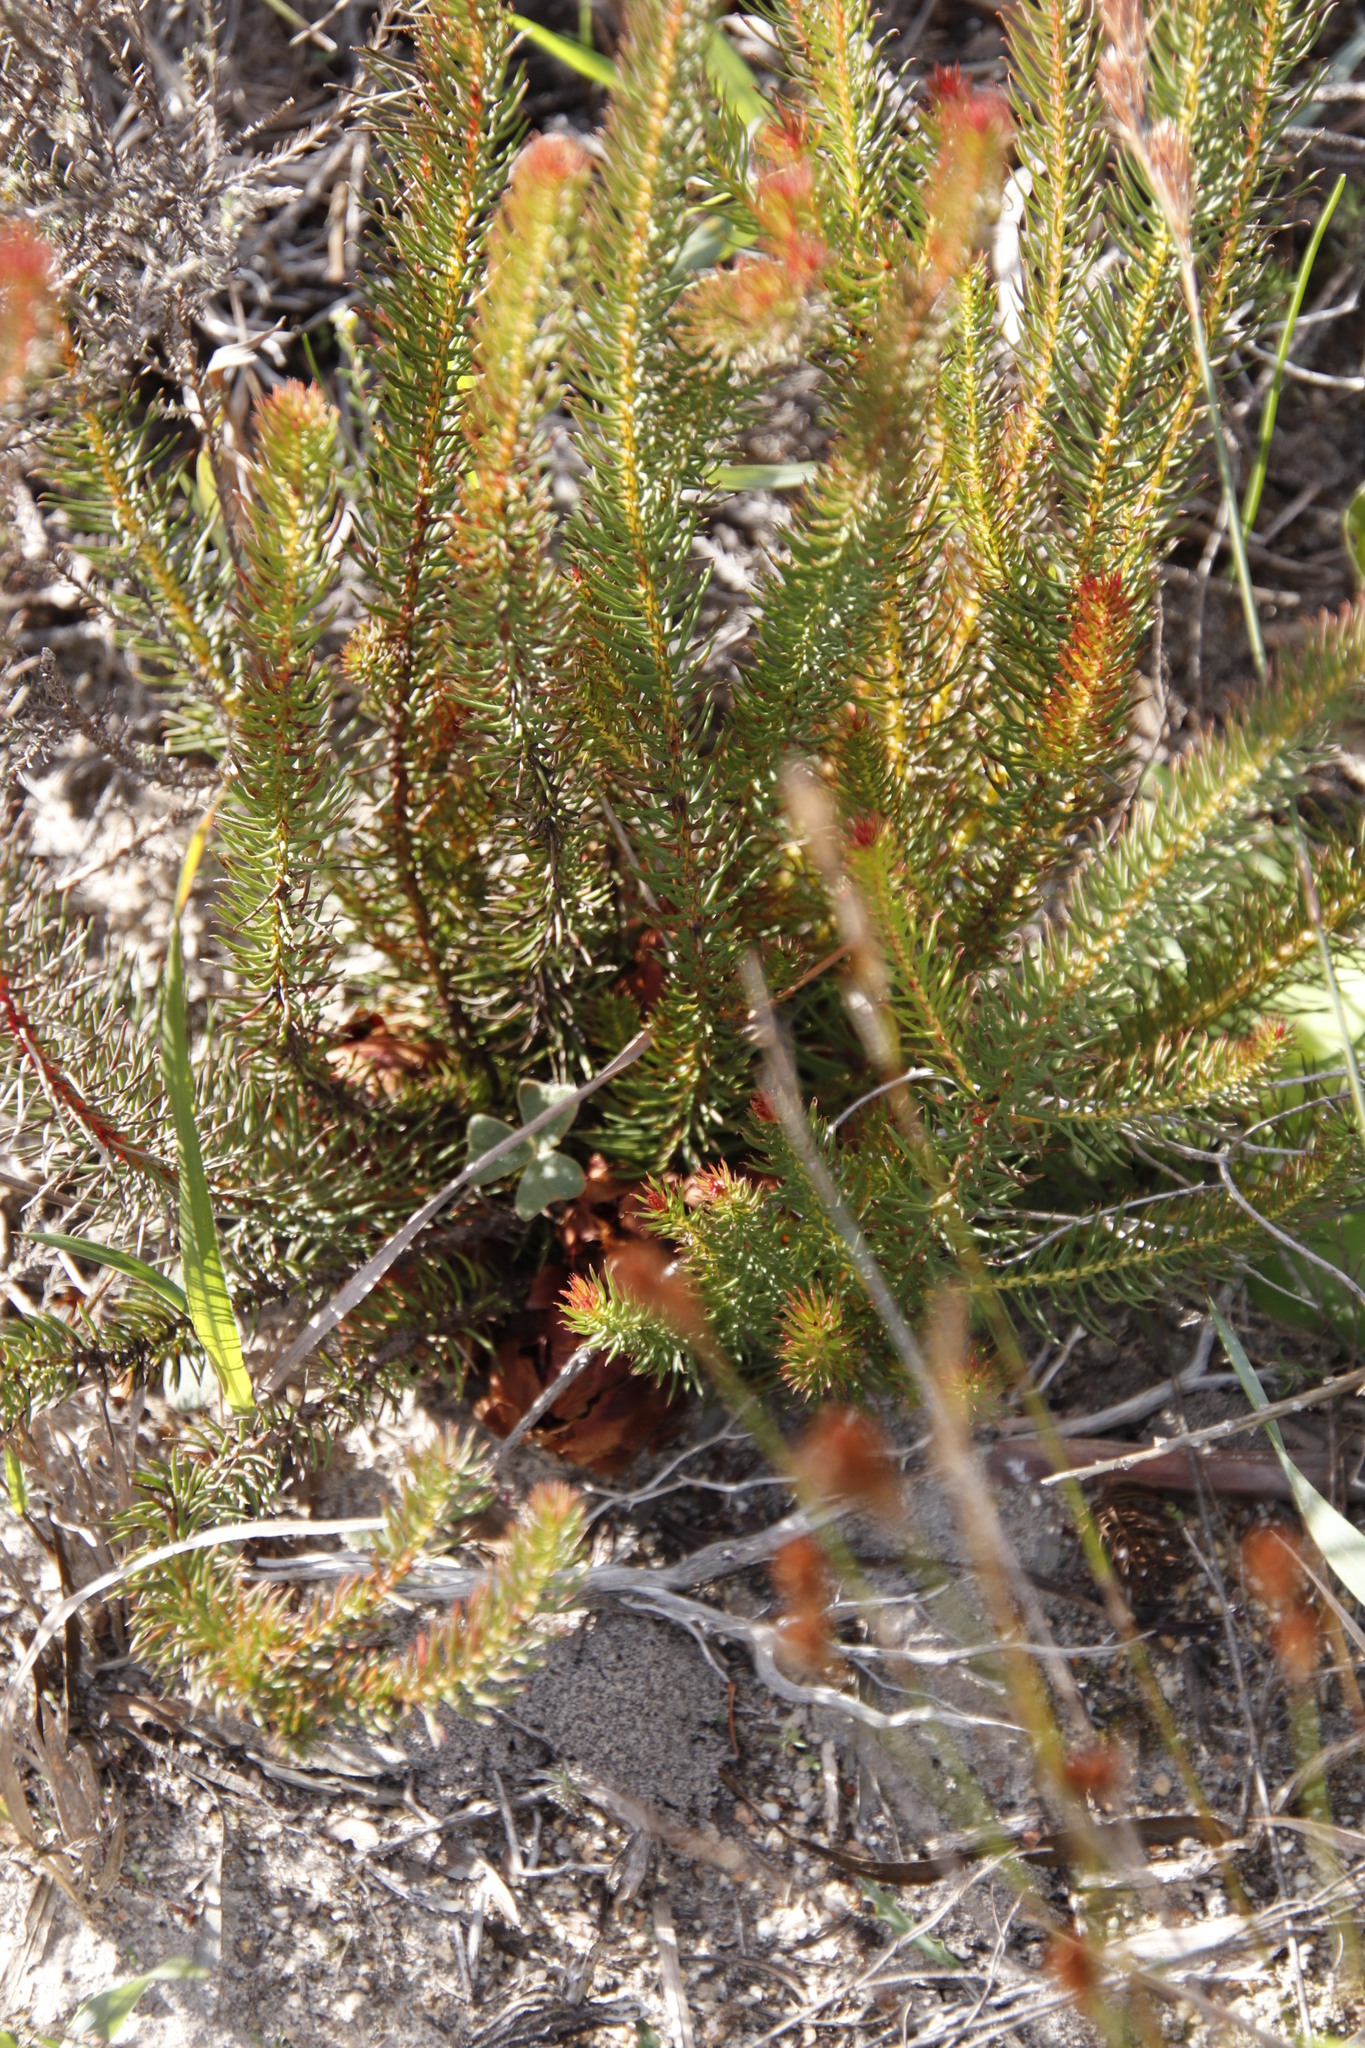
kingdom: Plantae
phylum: Tracheophyta
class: Magnoliopsida
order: Proteales
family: Proteaceae
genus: Protea
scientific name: Protea subulifolia
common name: Awl-leaf sugarbush
